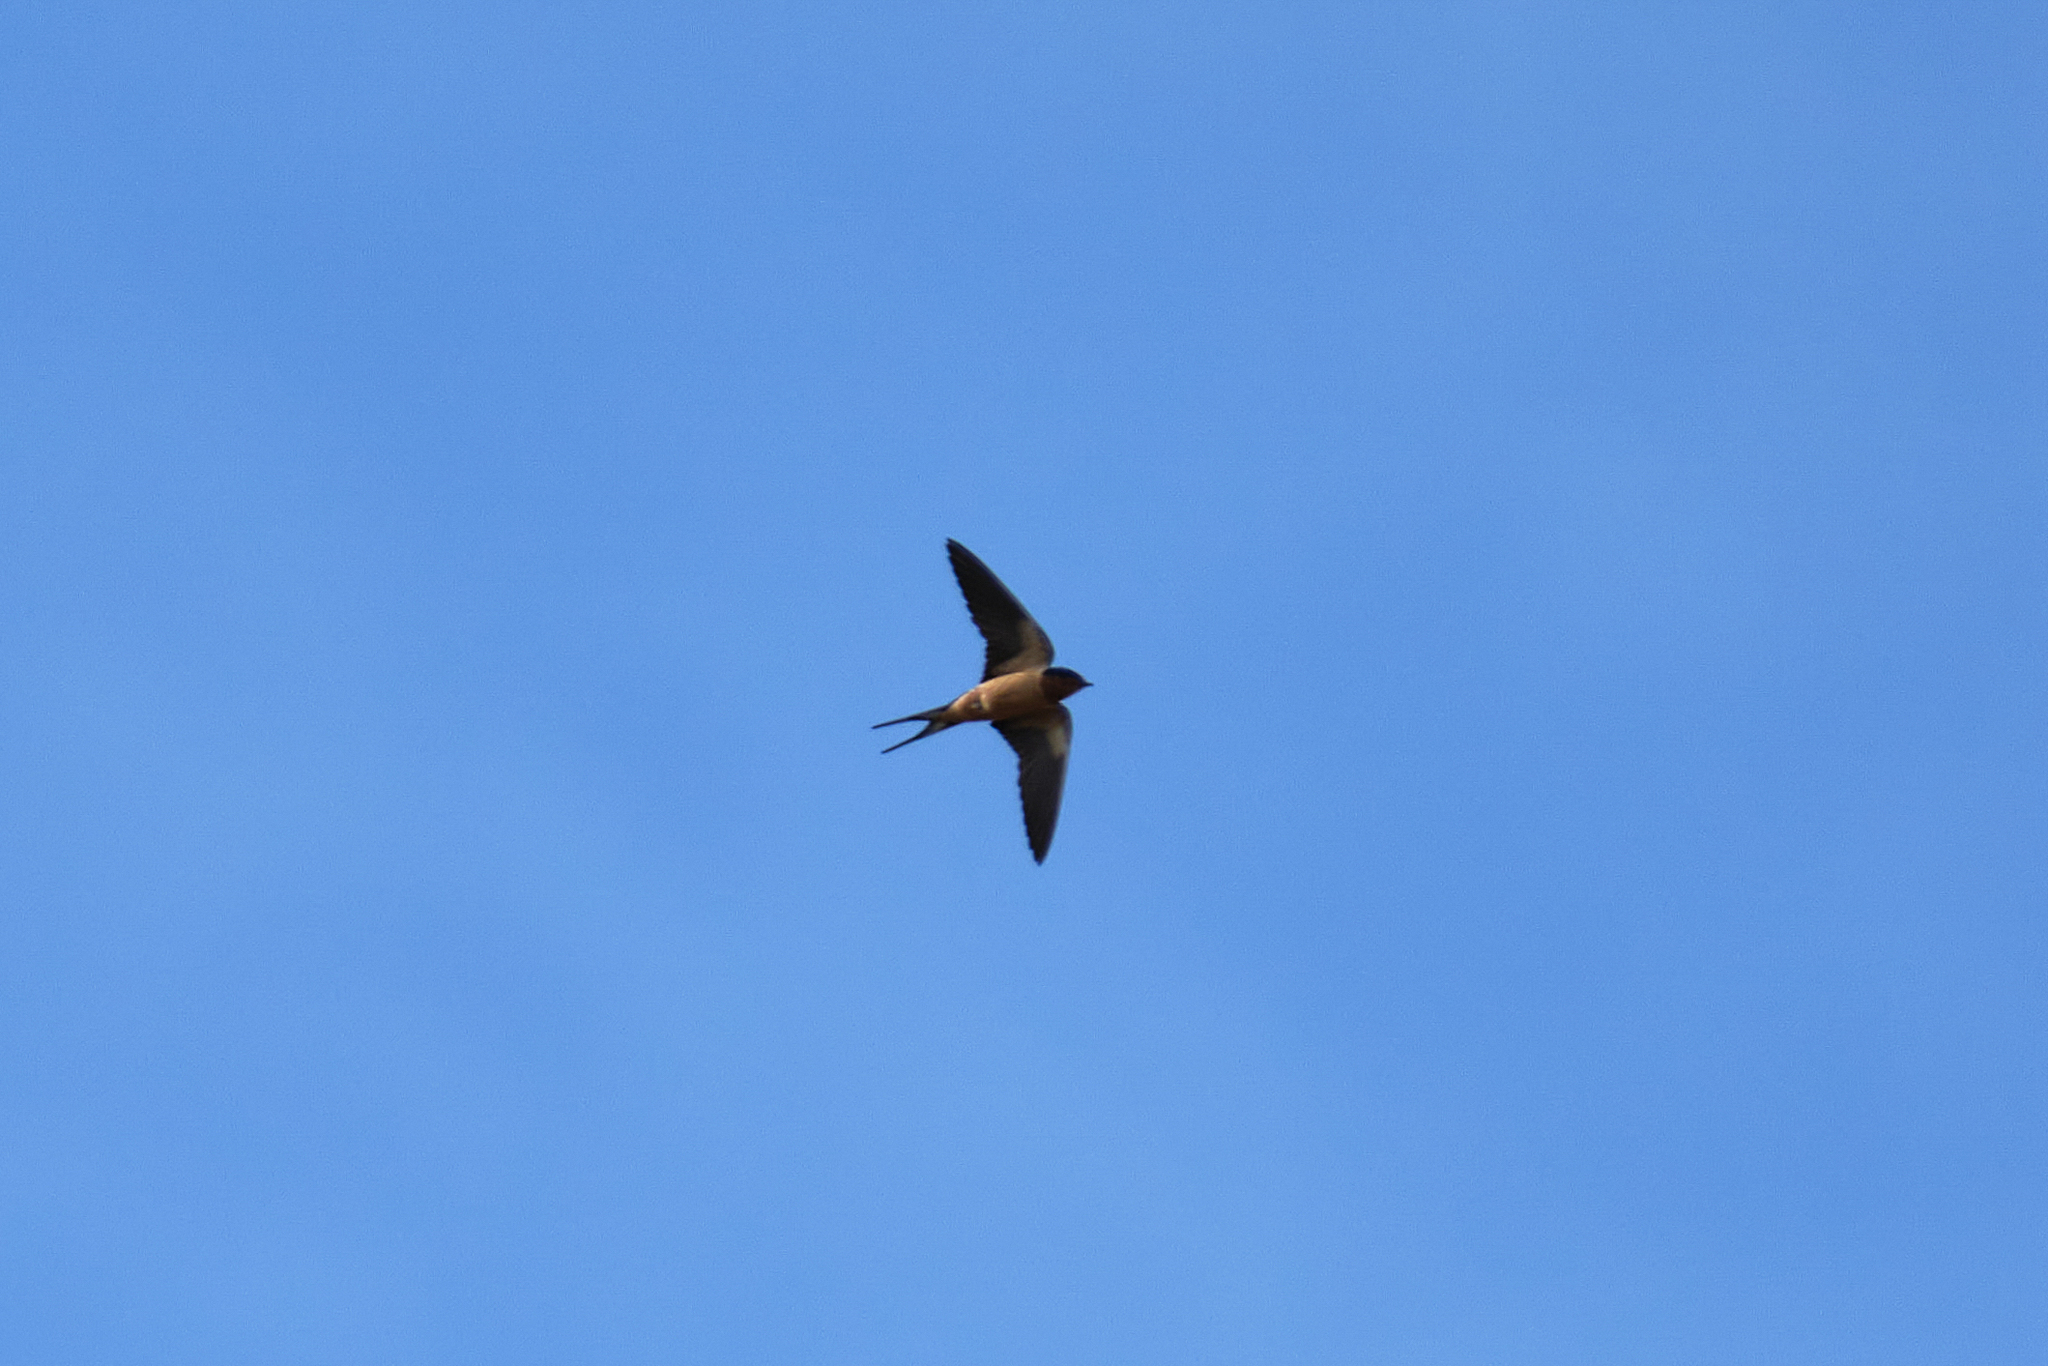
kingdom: Animalia
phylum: Chordata
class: Aves
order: Passeriformes
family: Hirundinidae
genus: Hirundo
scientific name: Hirundo rustica
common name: Barn swallow
